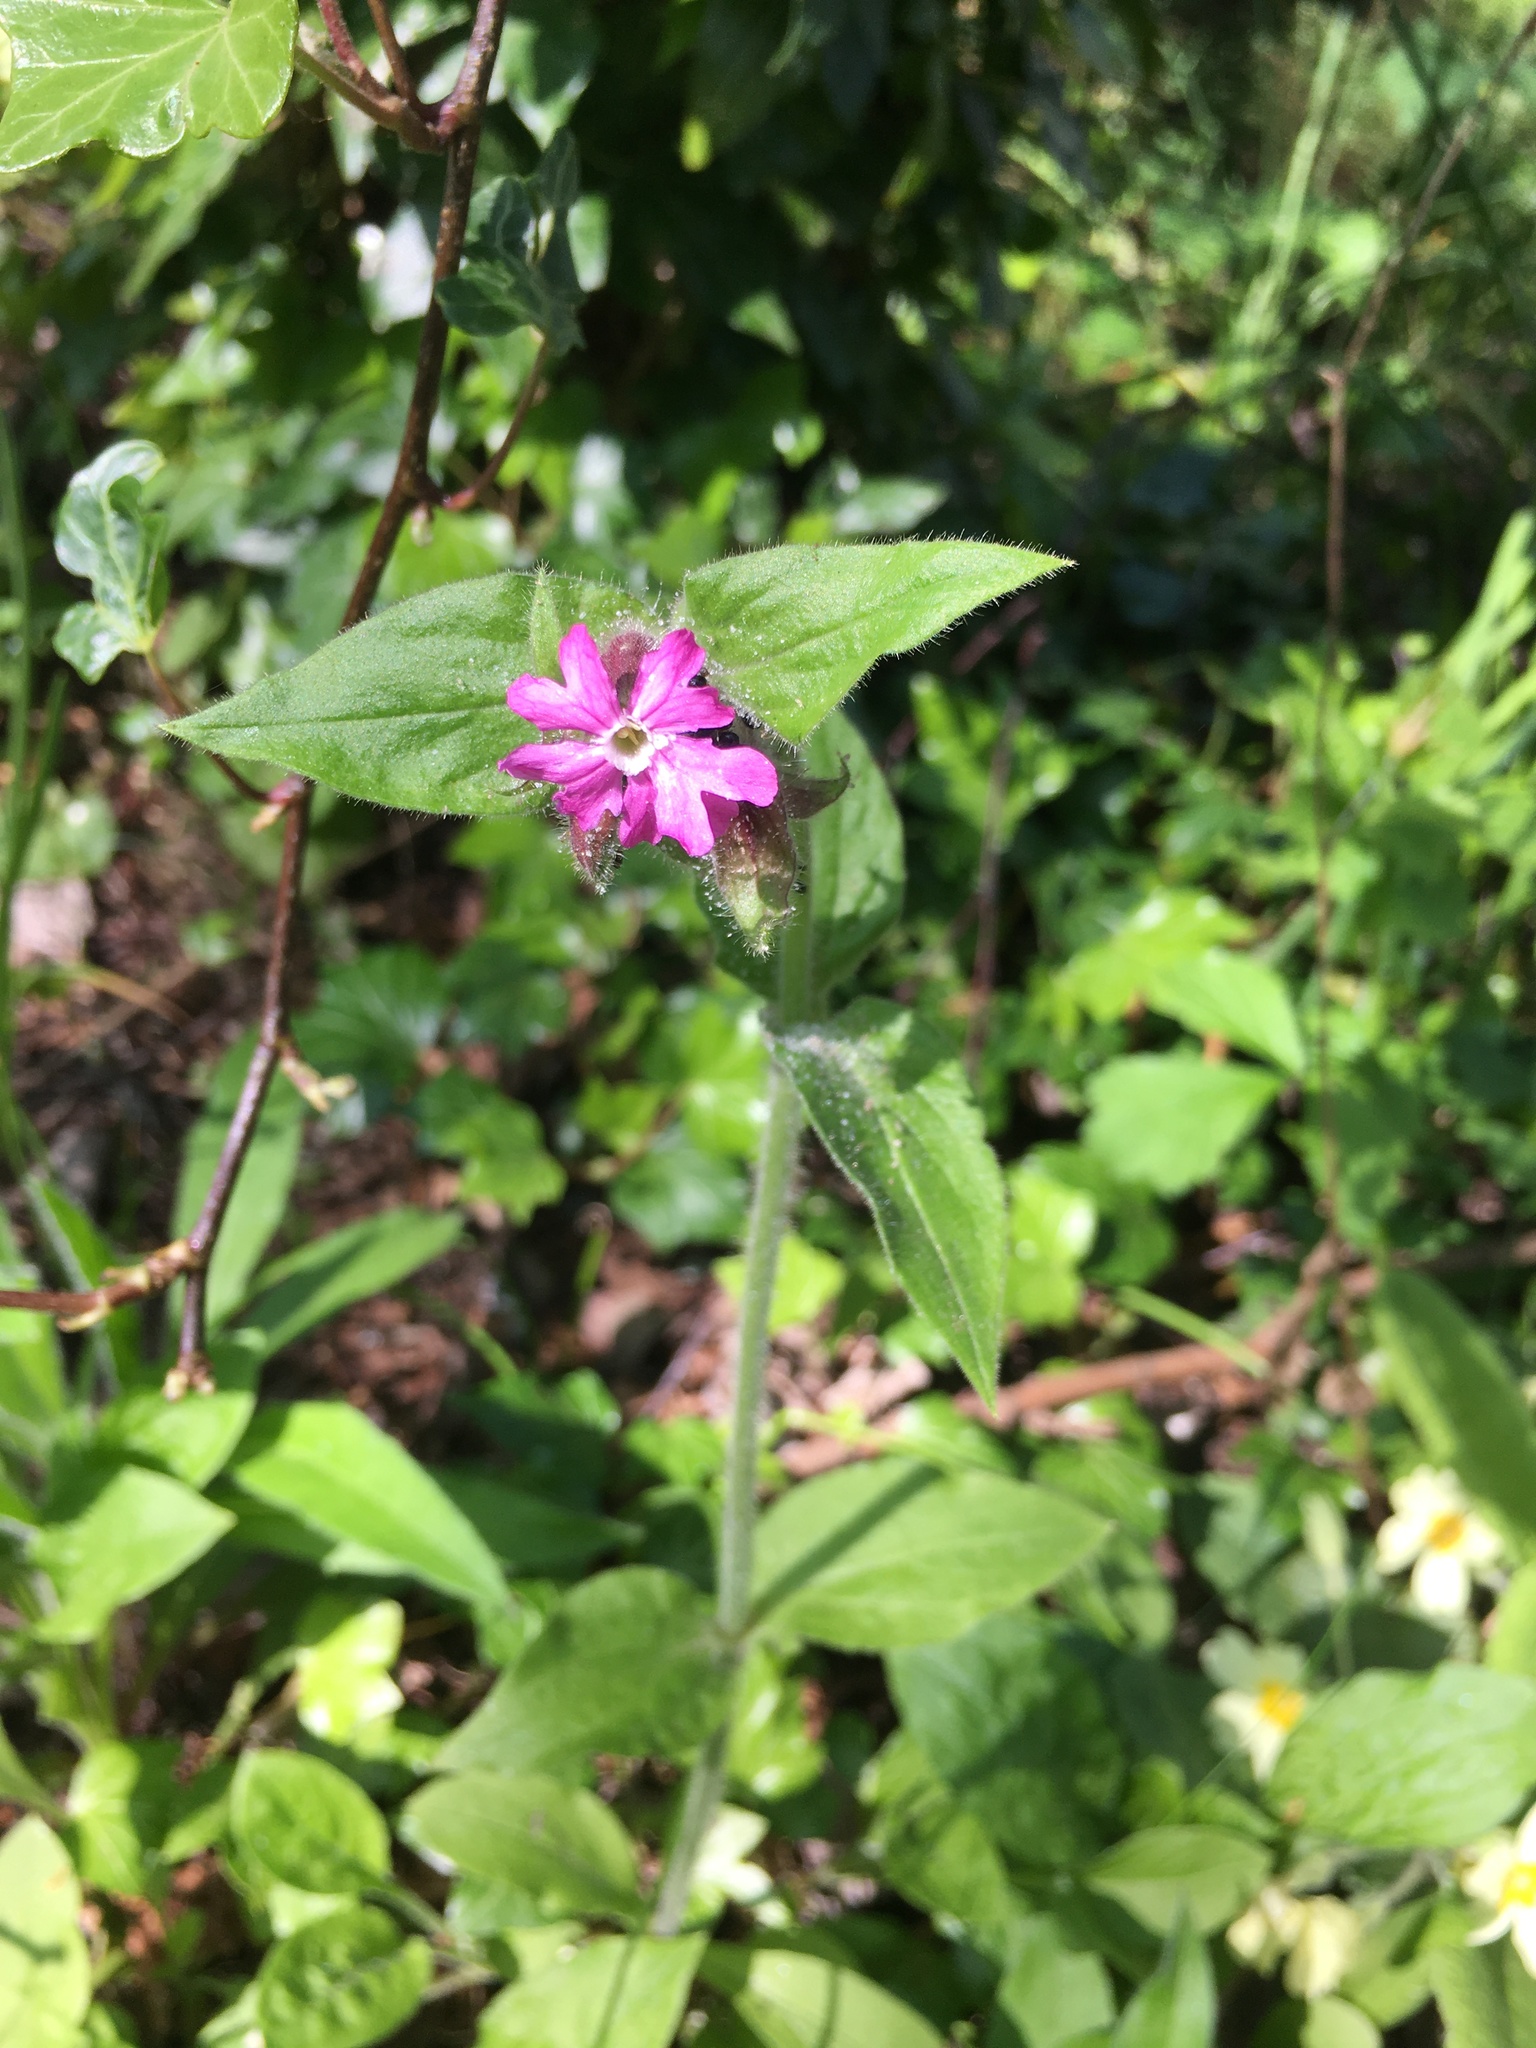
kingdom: Plantae
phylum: Tracheophyta
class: Magnoliopsida
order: Caryophyllales
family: Caryophyllaceae
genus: Silene
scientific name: Silene dioica
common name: Red campion
